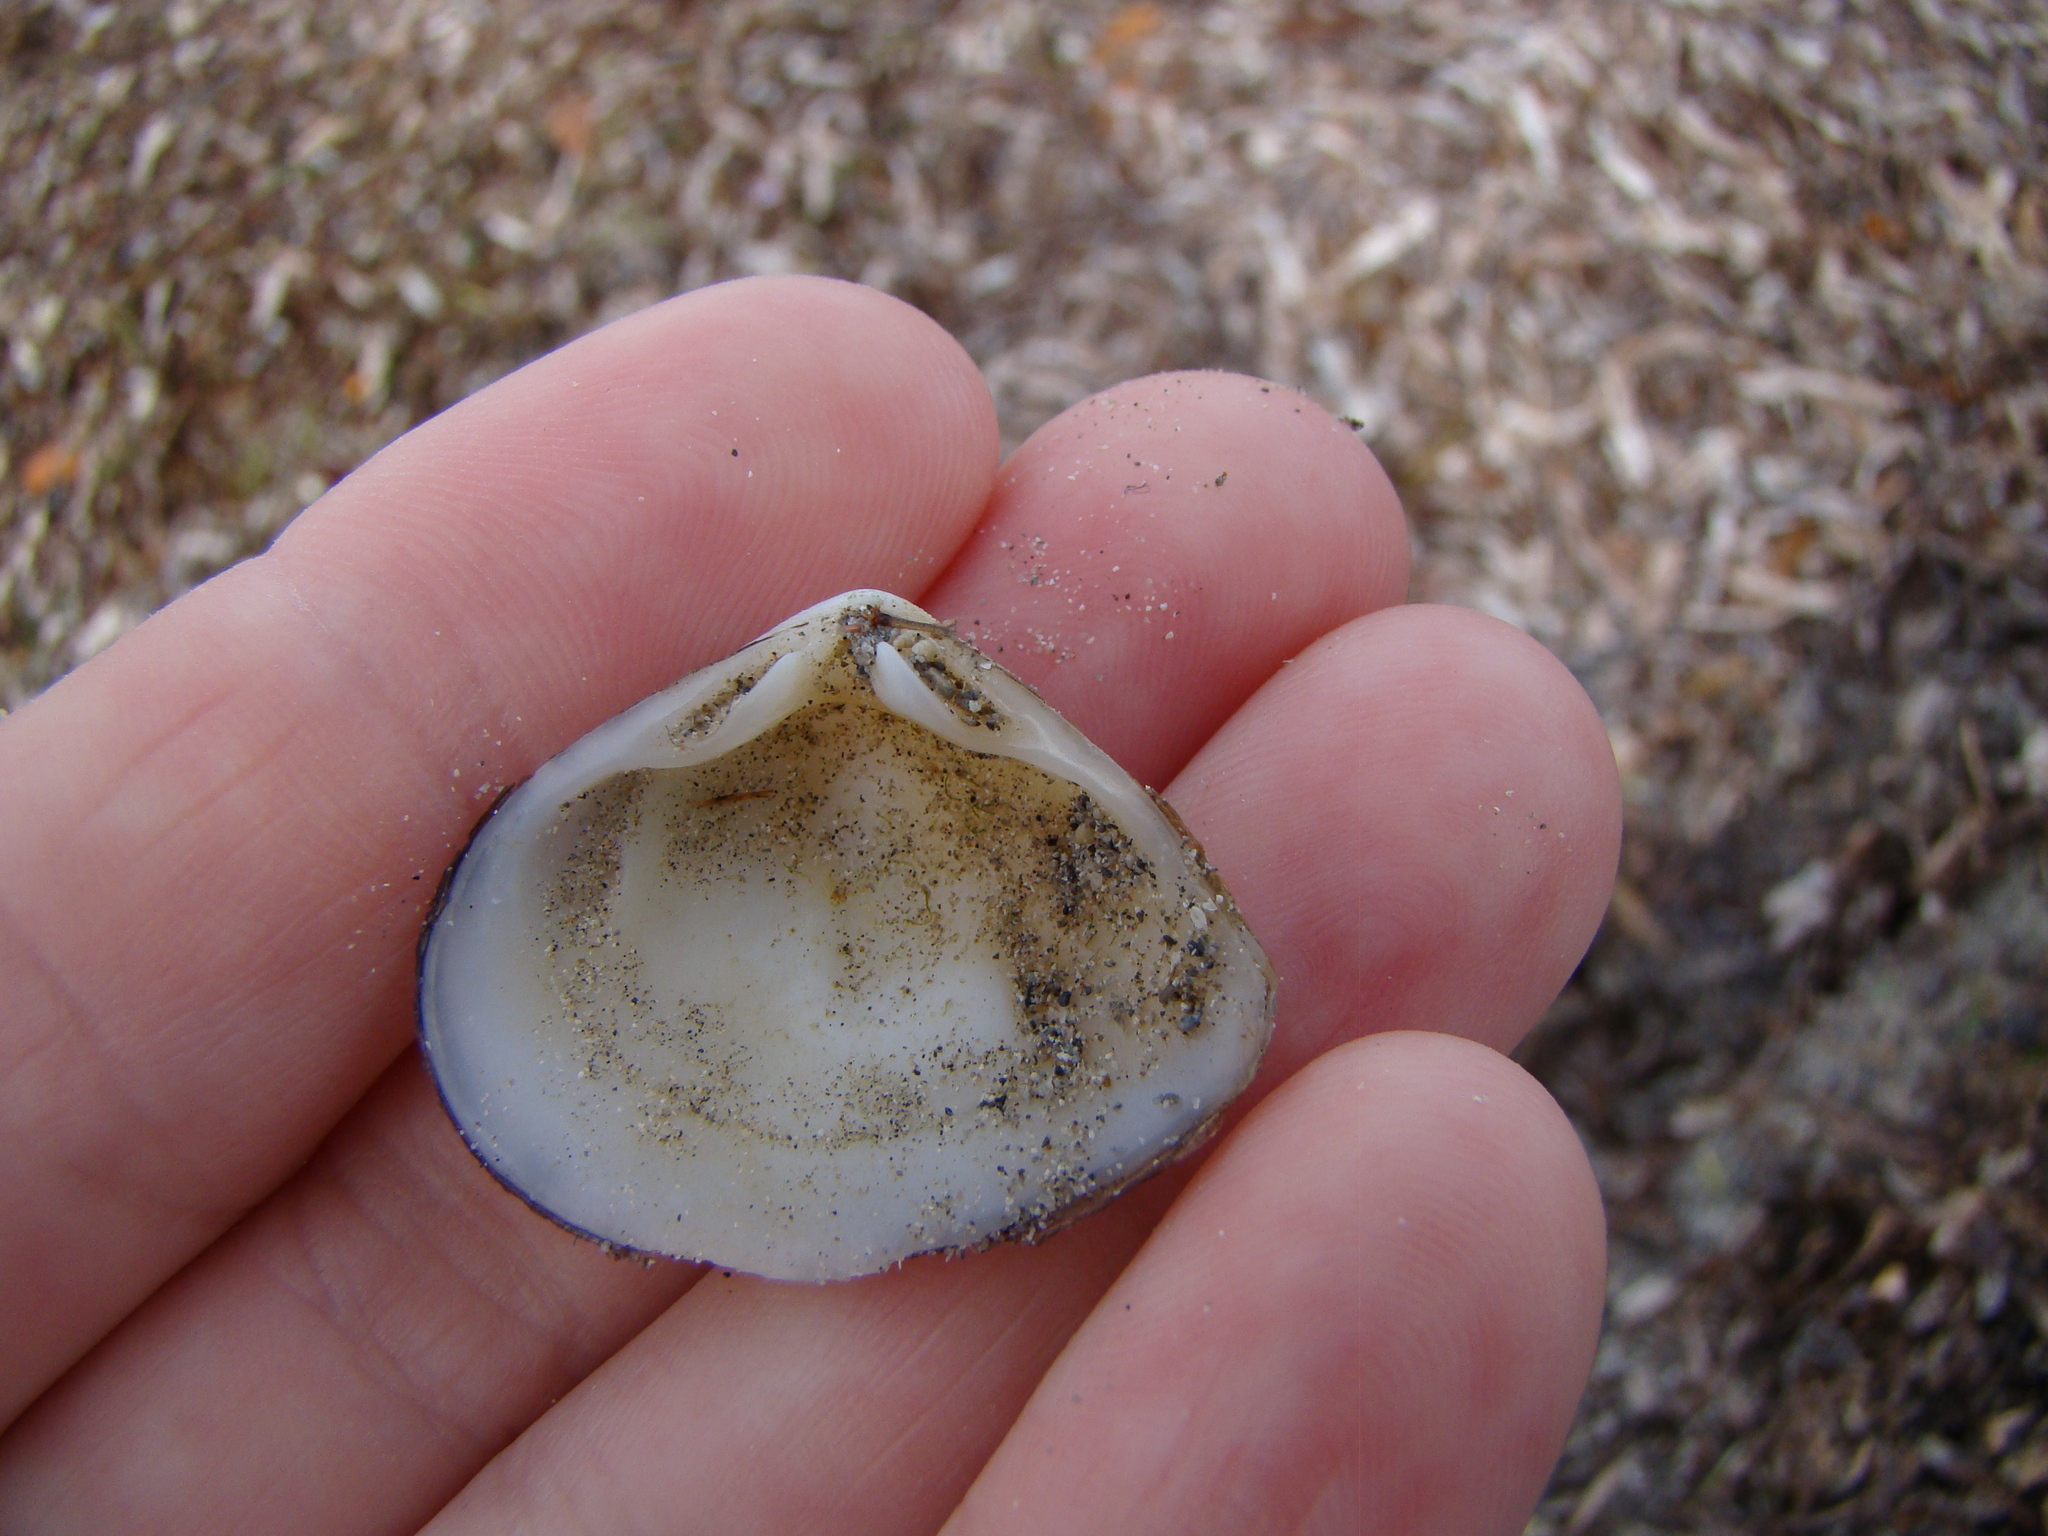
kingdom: Animalia
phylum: Mollusca
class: Bivalvia
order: Venerida
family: Mesodesmatidae
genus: Atactodea
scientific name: Atactodea striata
